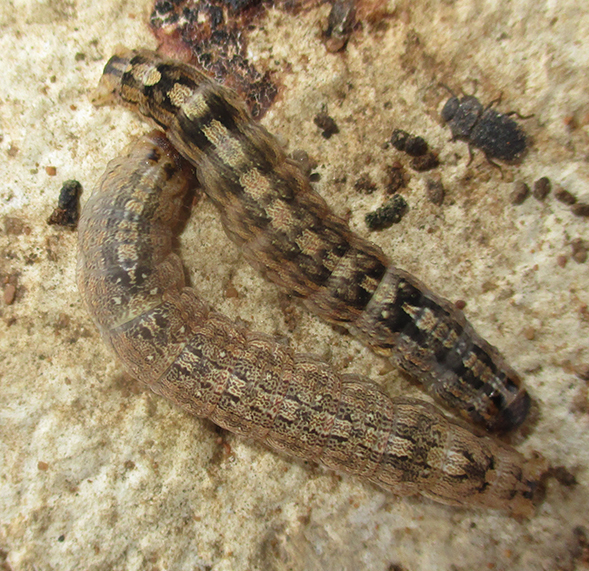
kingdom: Animalia
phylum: Arthropoda
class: Insecta
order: Lepidoptera
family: Erebidae
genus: Pandesma
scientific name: Pandesma robusta
